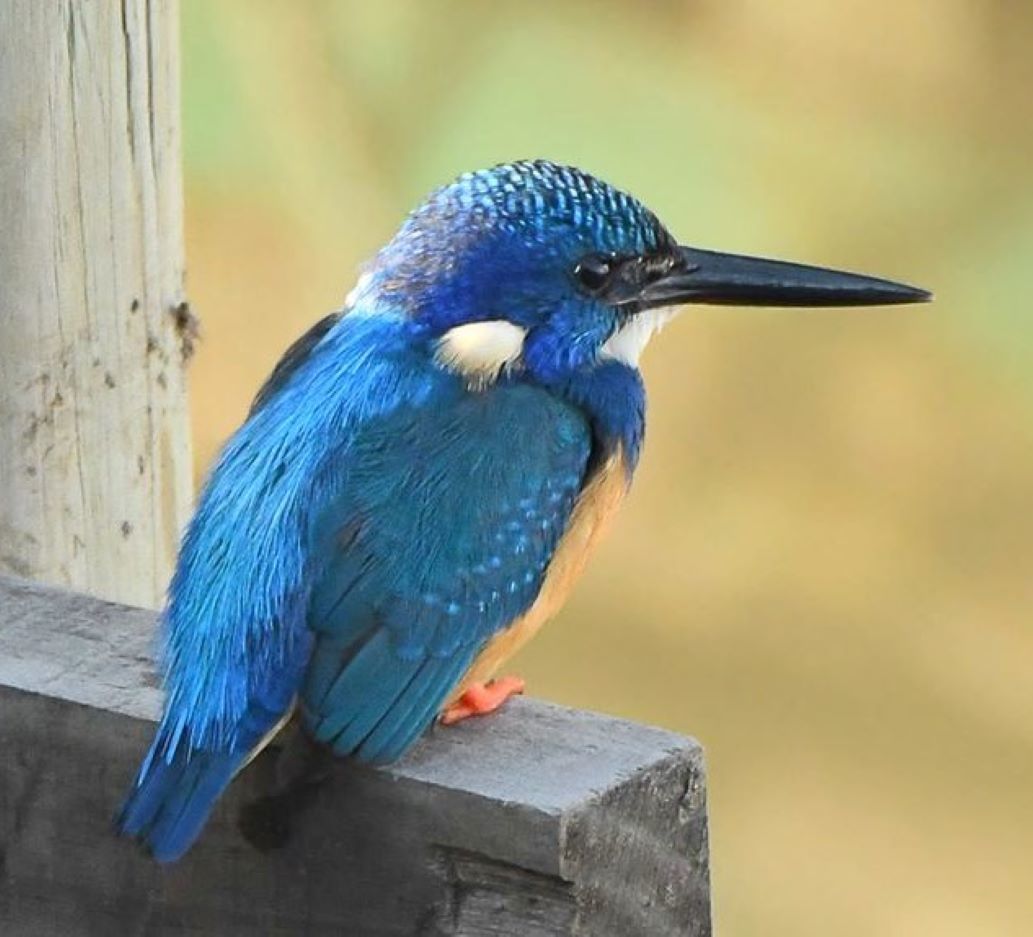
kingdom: Animalia
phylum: Chordata
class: Aves
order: Coraciiformes
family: Alcedinidae
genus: Alcedo
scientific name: Alcedo semitorquata
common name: Half-collared kingfisher
